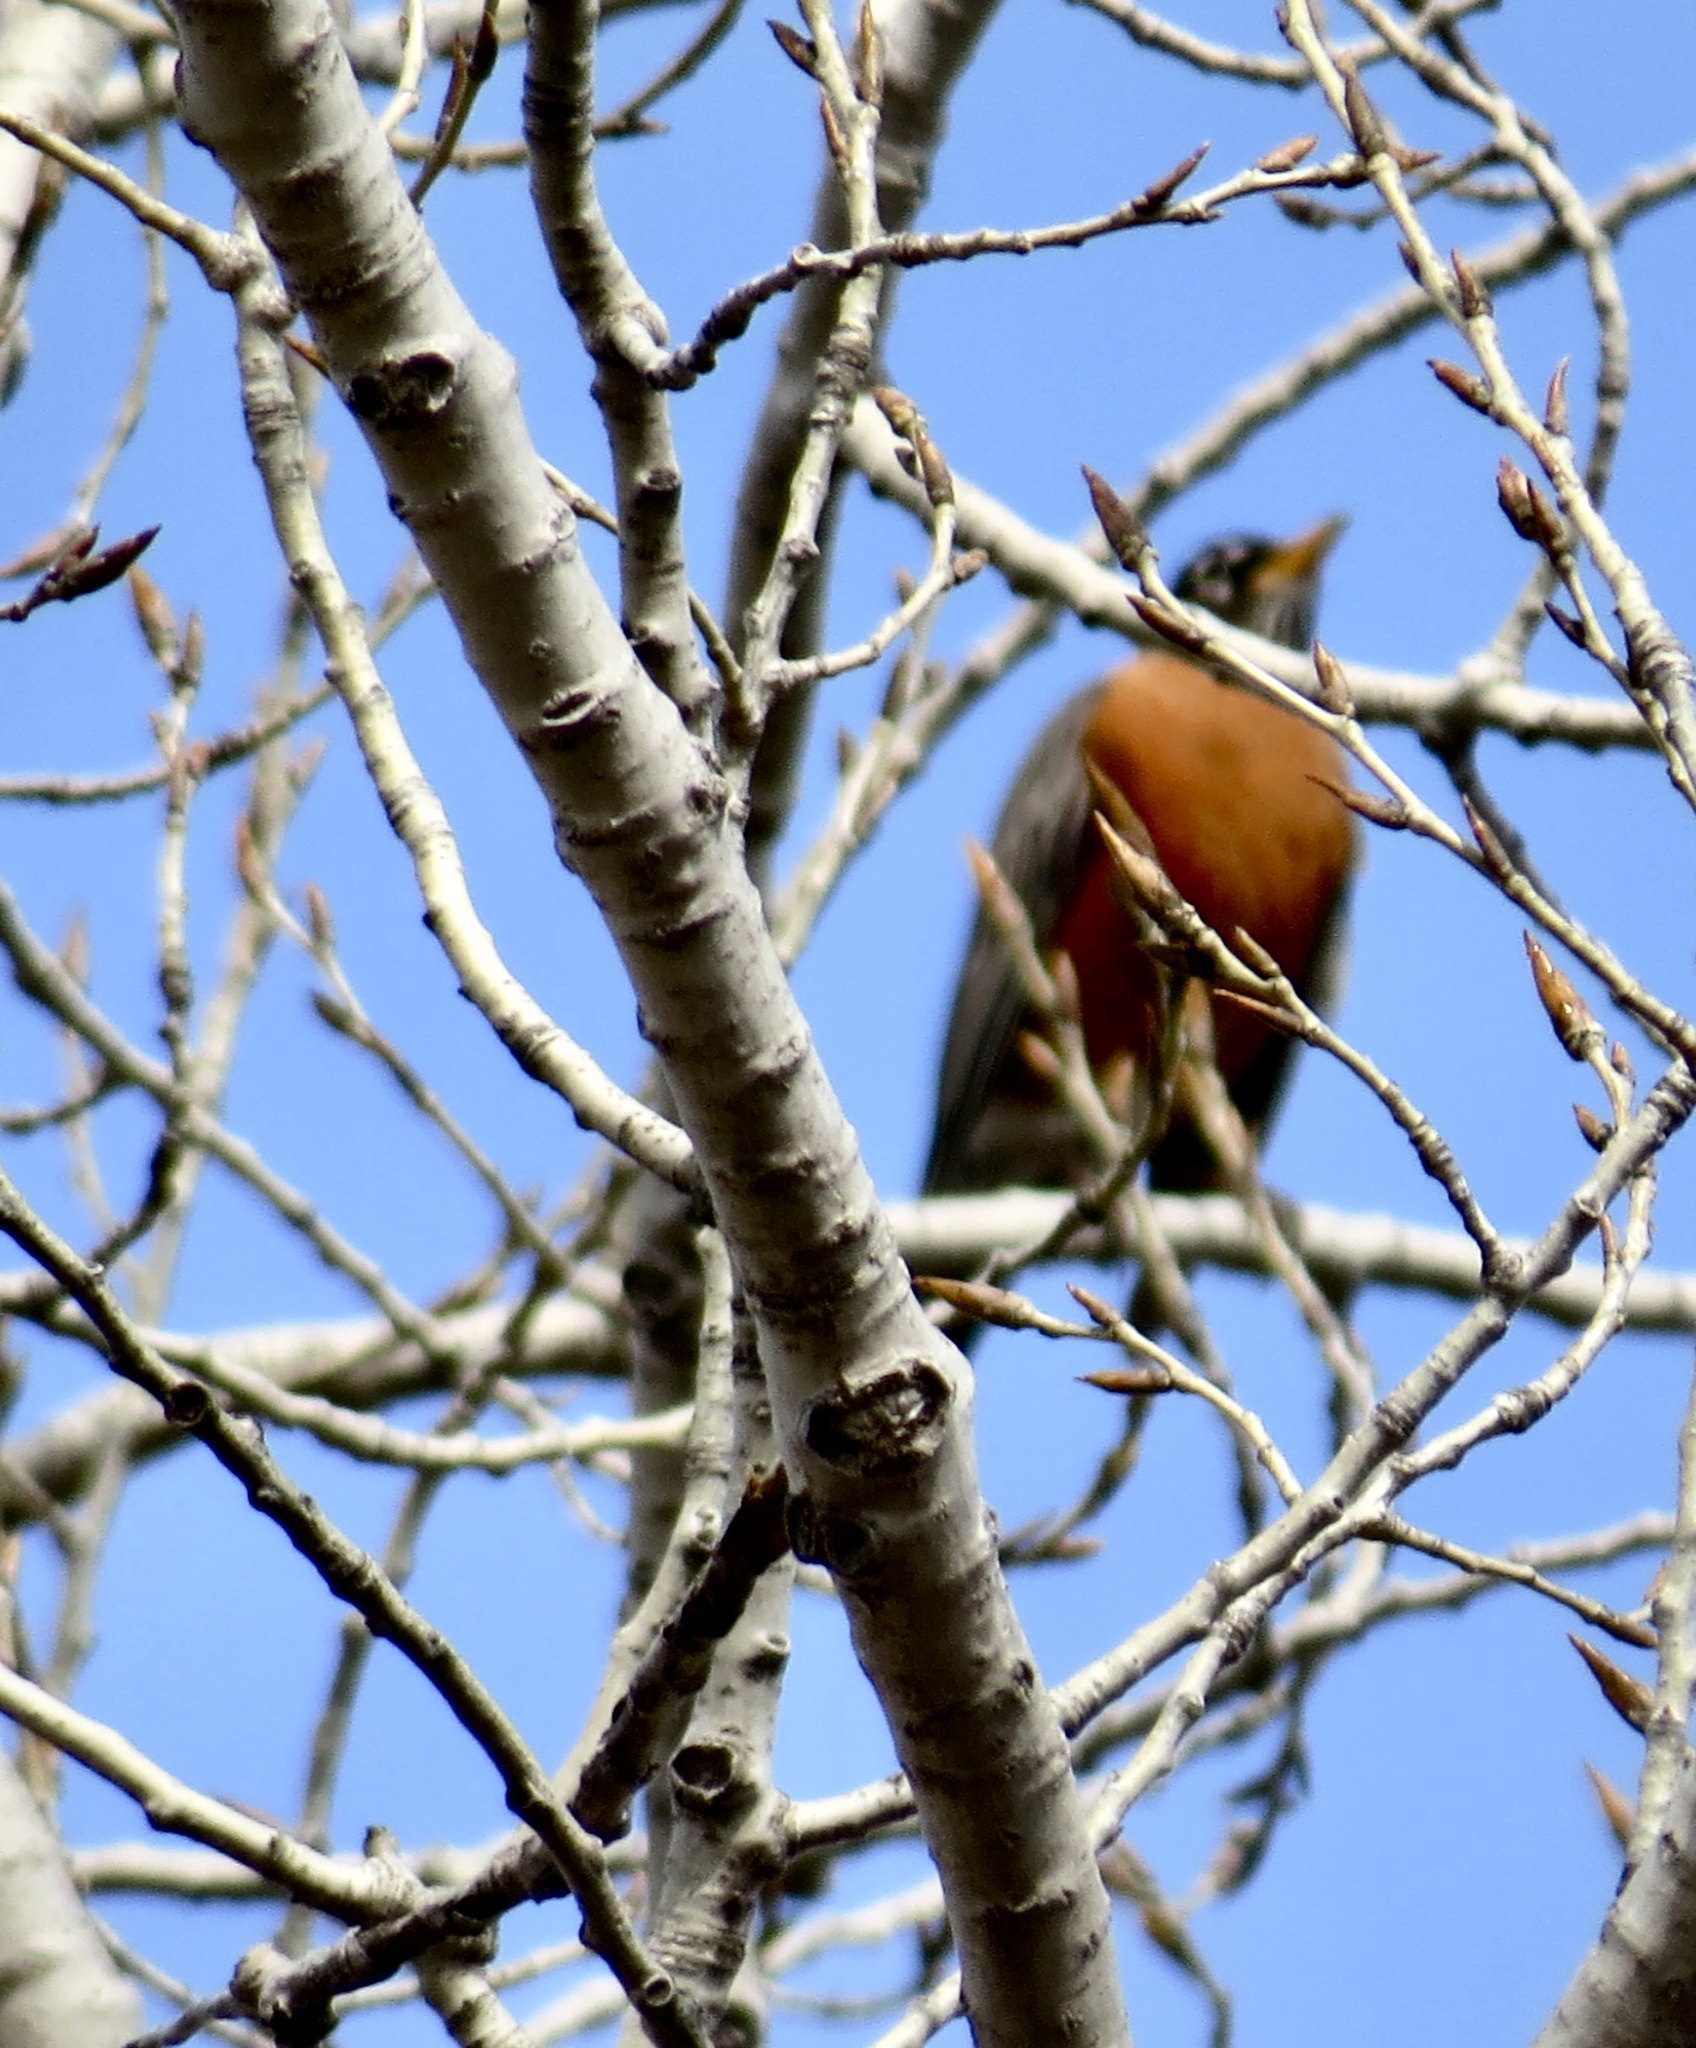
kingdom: Animalia
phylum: Chordata
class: Aves
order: Passeriformes
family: Turdidae
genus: Turdus
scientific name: Turdus migratorius
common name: American robin
